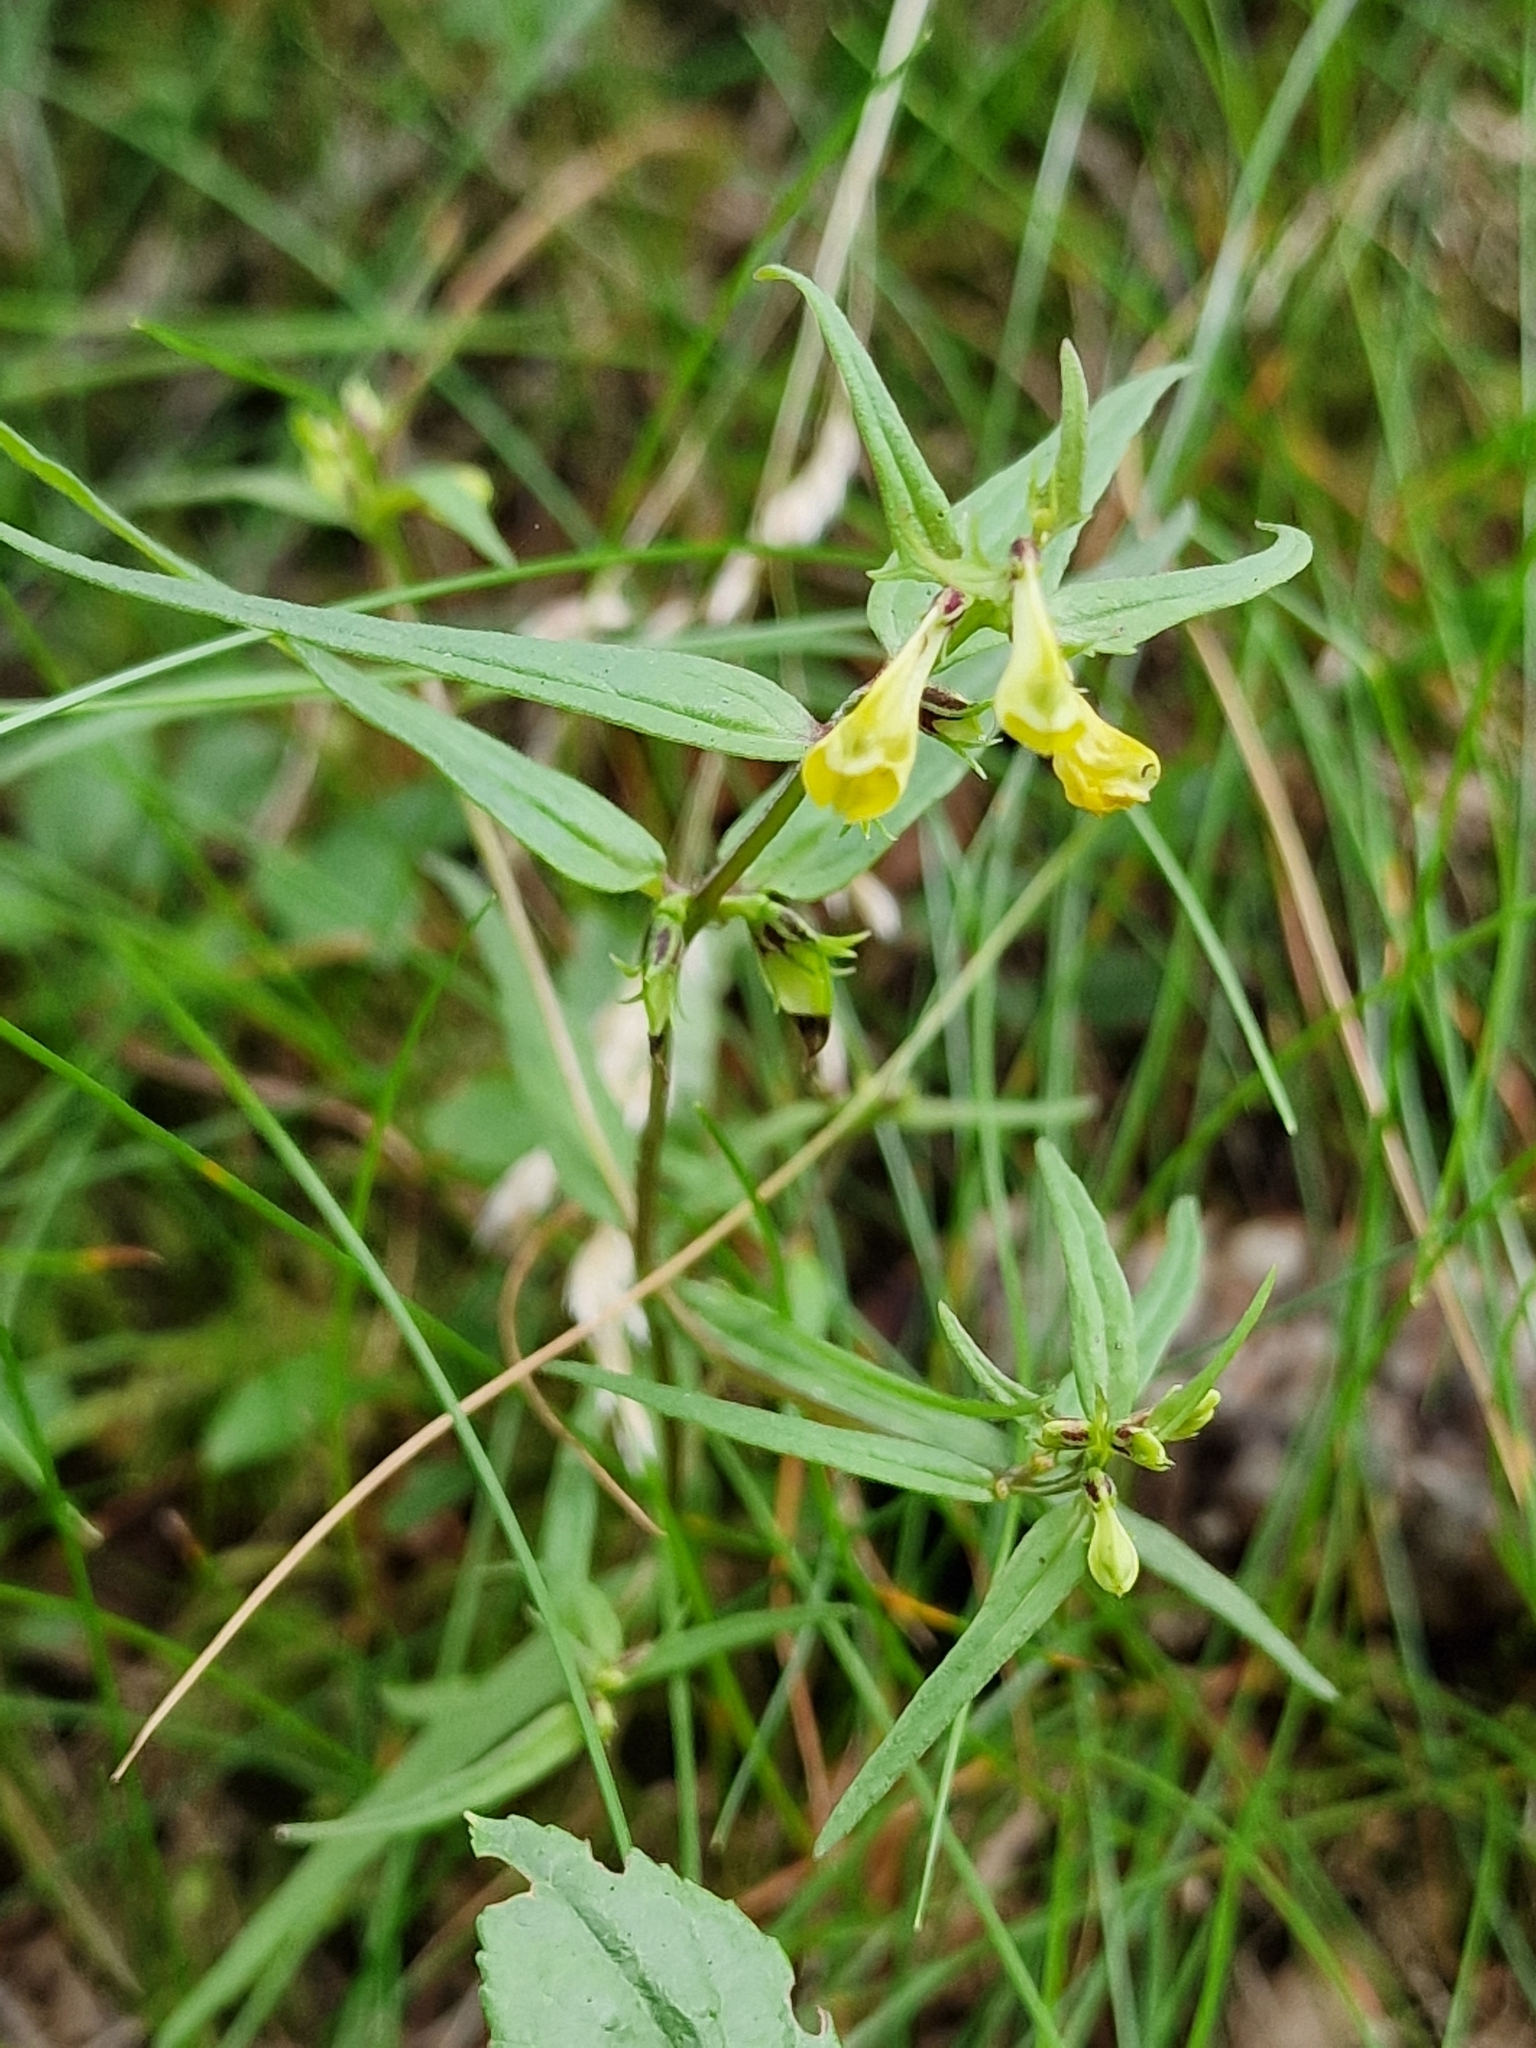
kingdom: Plantae
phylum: Tracheophyta
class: Magnoliopsida
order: Lamiales
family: Orobanchaceae
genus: Melampyrum
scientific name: Melampyrum pratense
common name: Common cow-wheat
